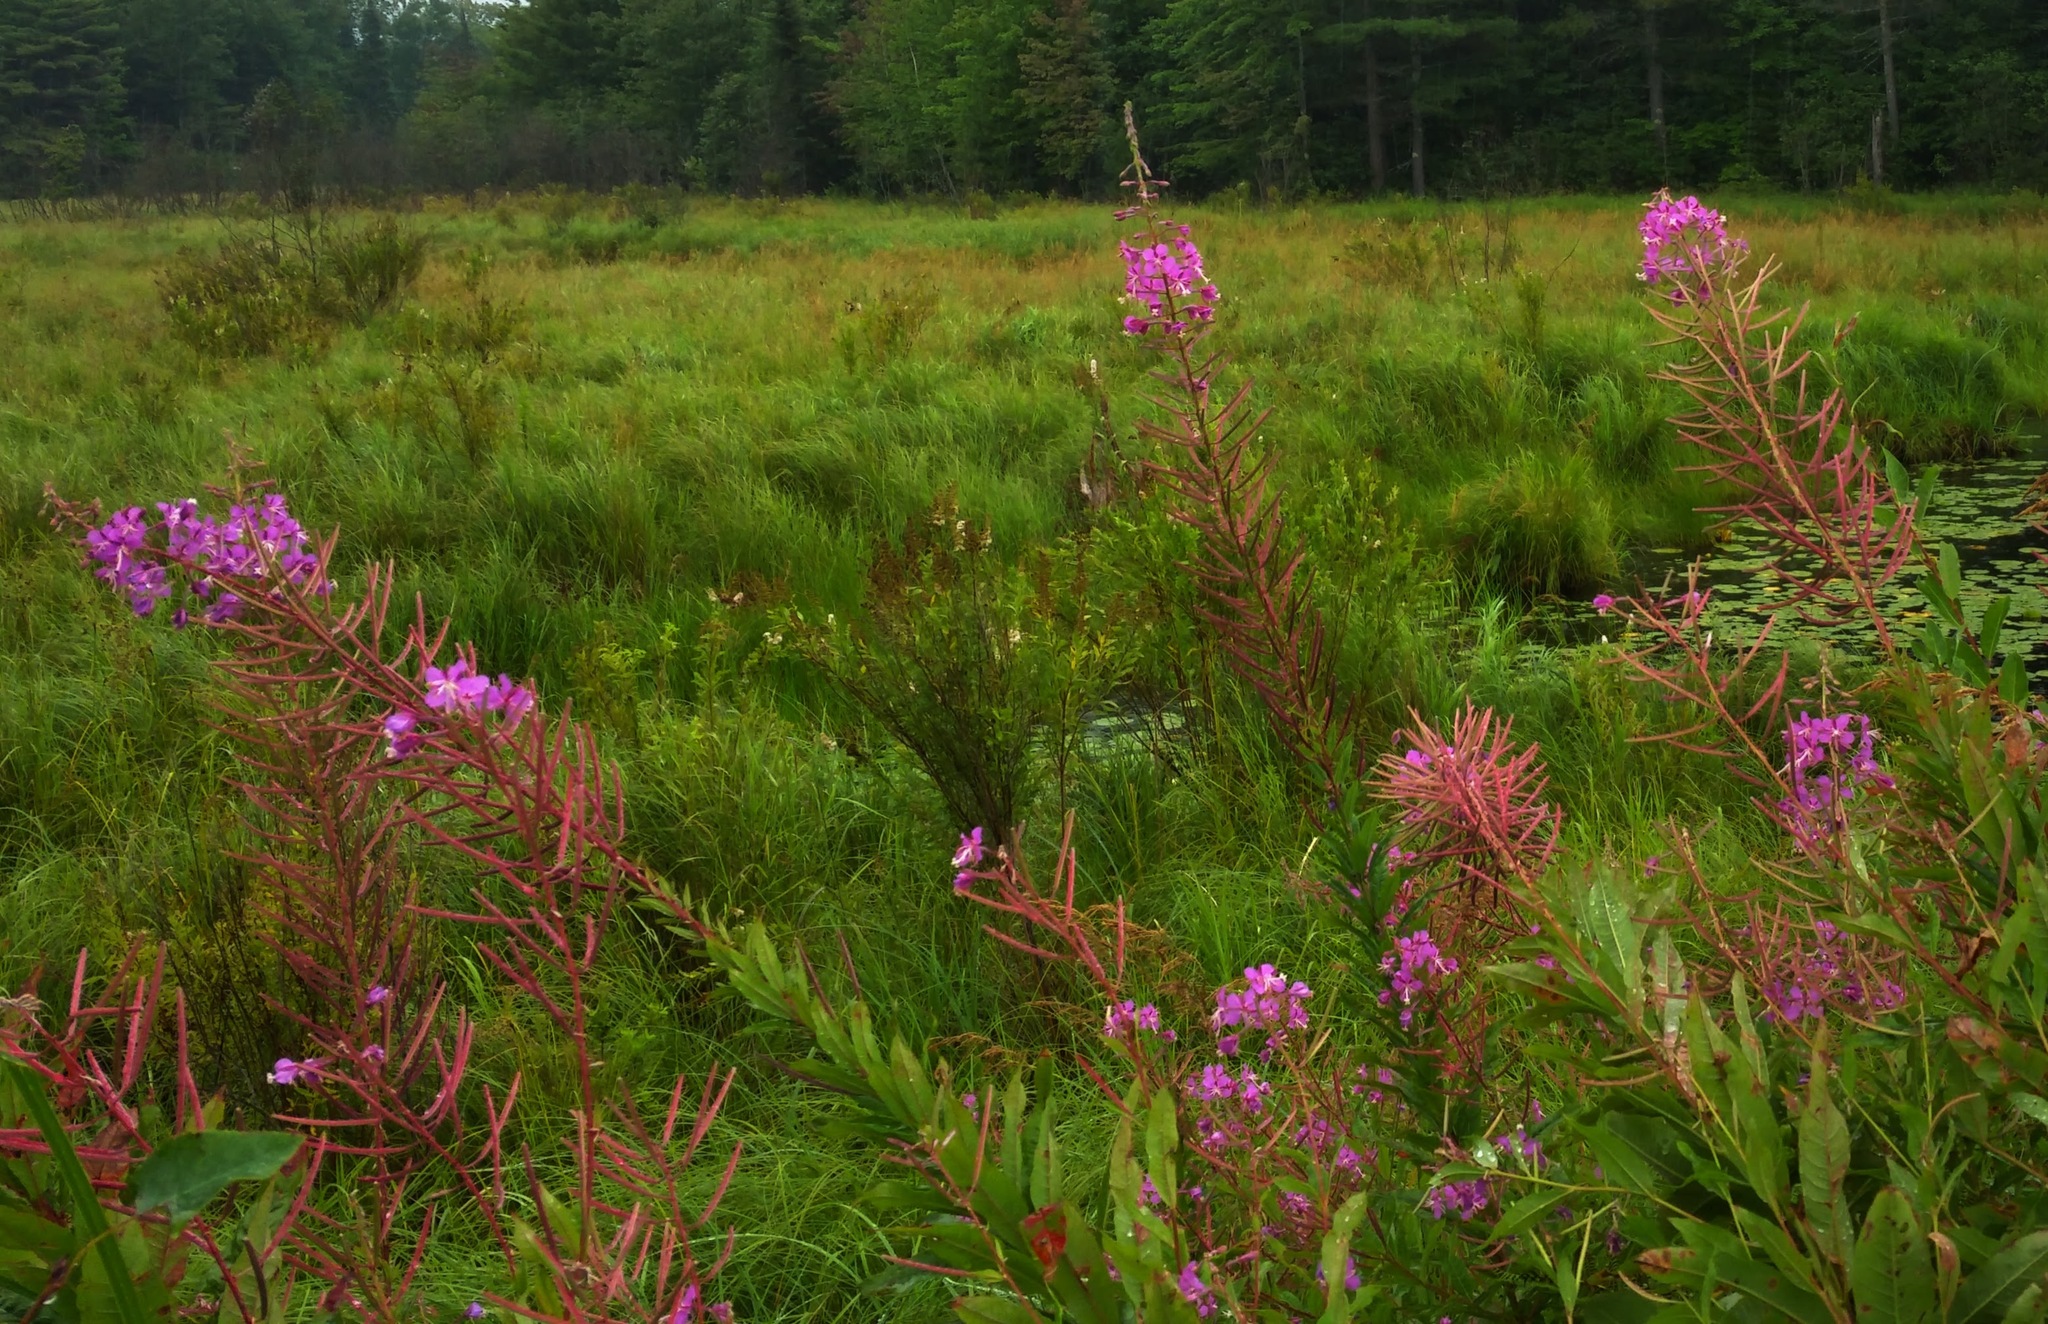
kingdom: Plantae
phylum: Tracheophyta
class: Magnoliopsida
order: Myrtales
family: Onagraceae
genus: Chamaenerion
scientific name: Chamaenerion angustifolium
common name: Fireweed
